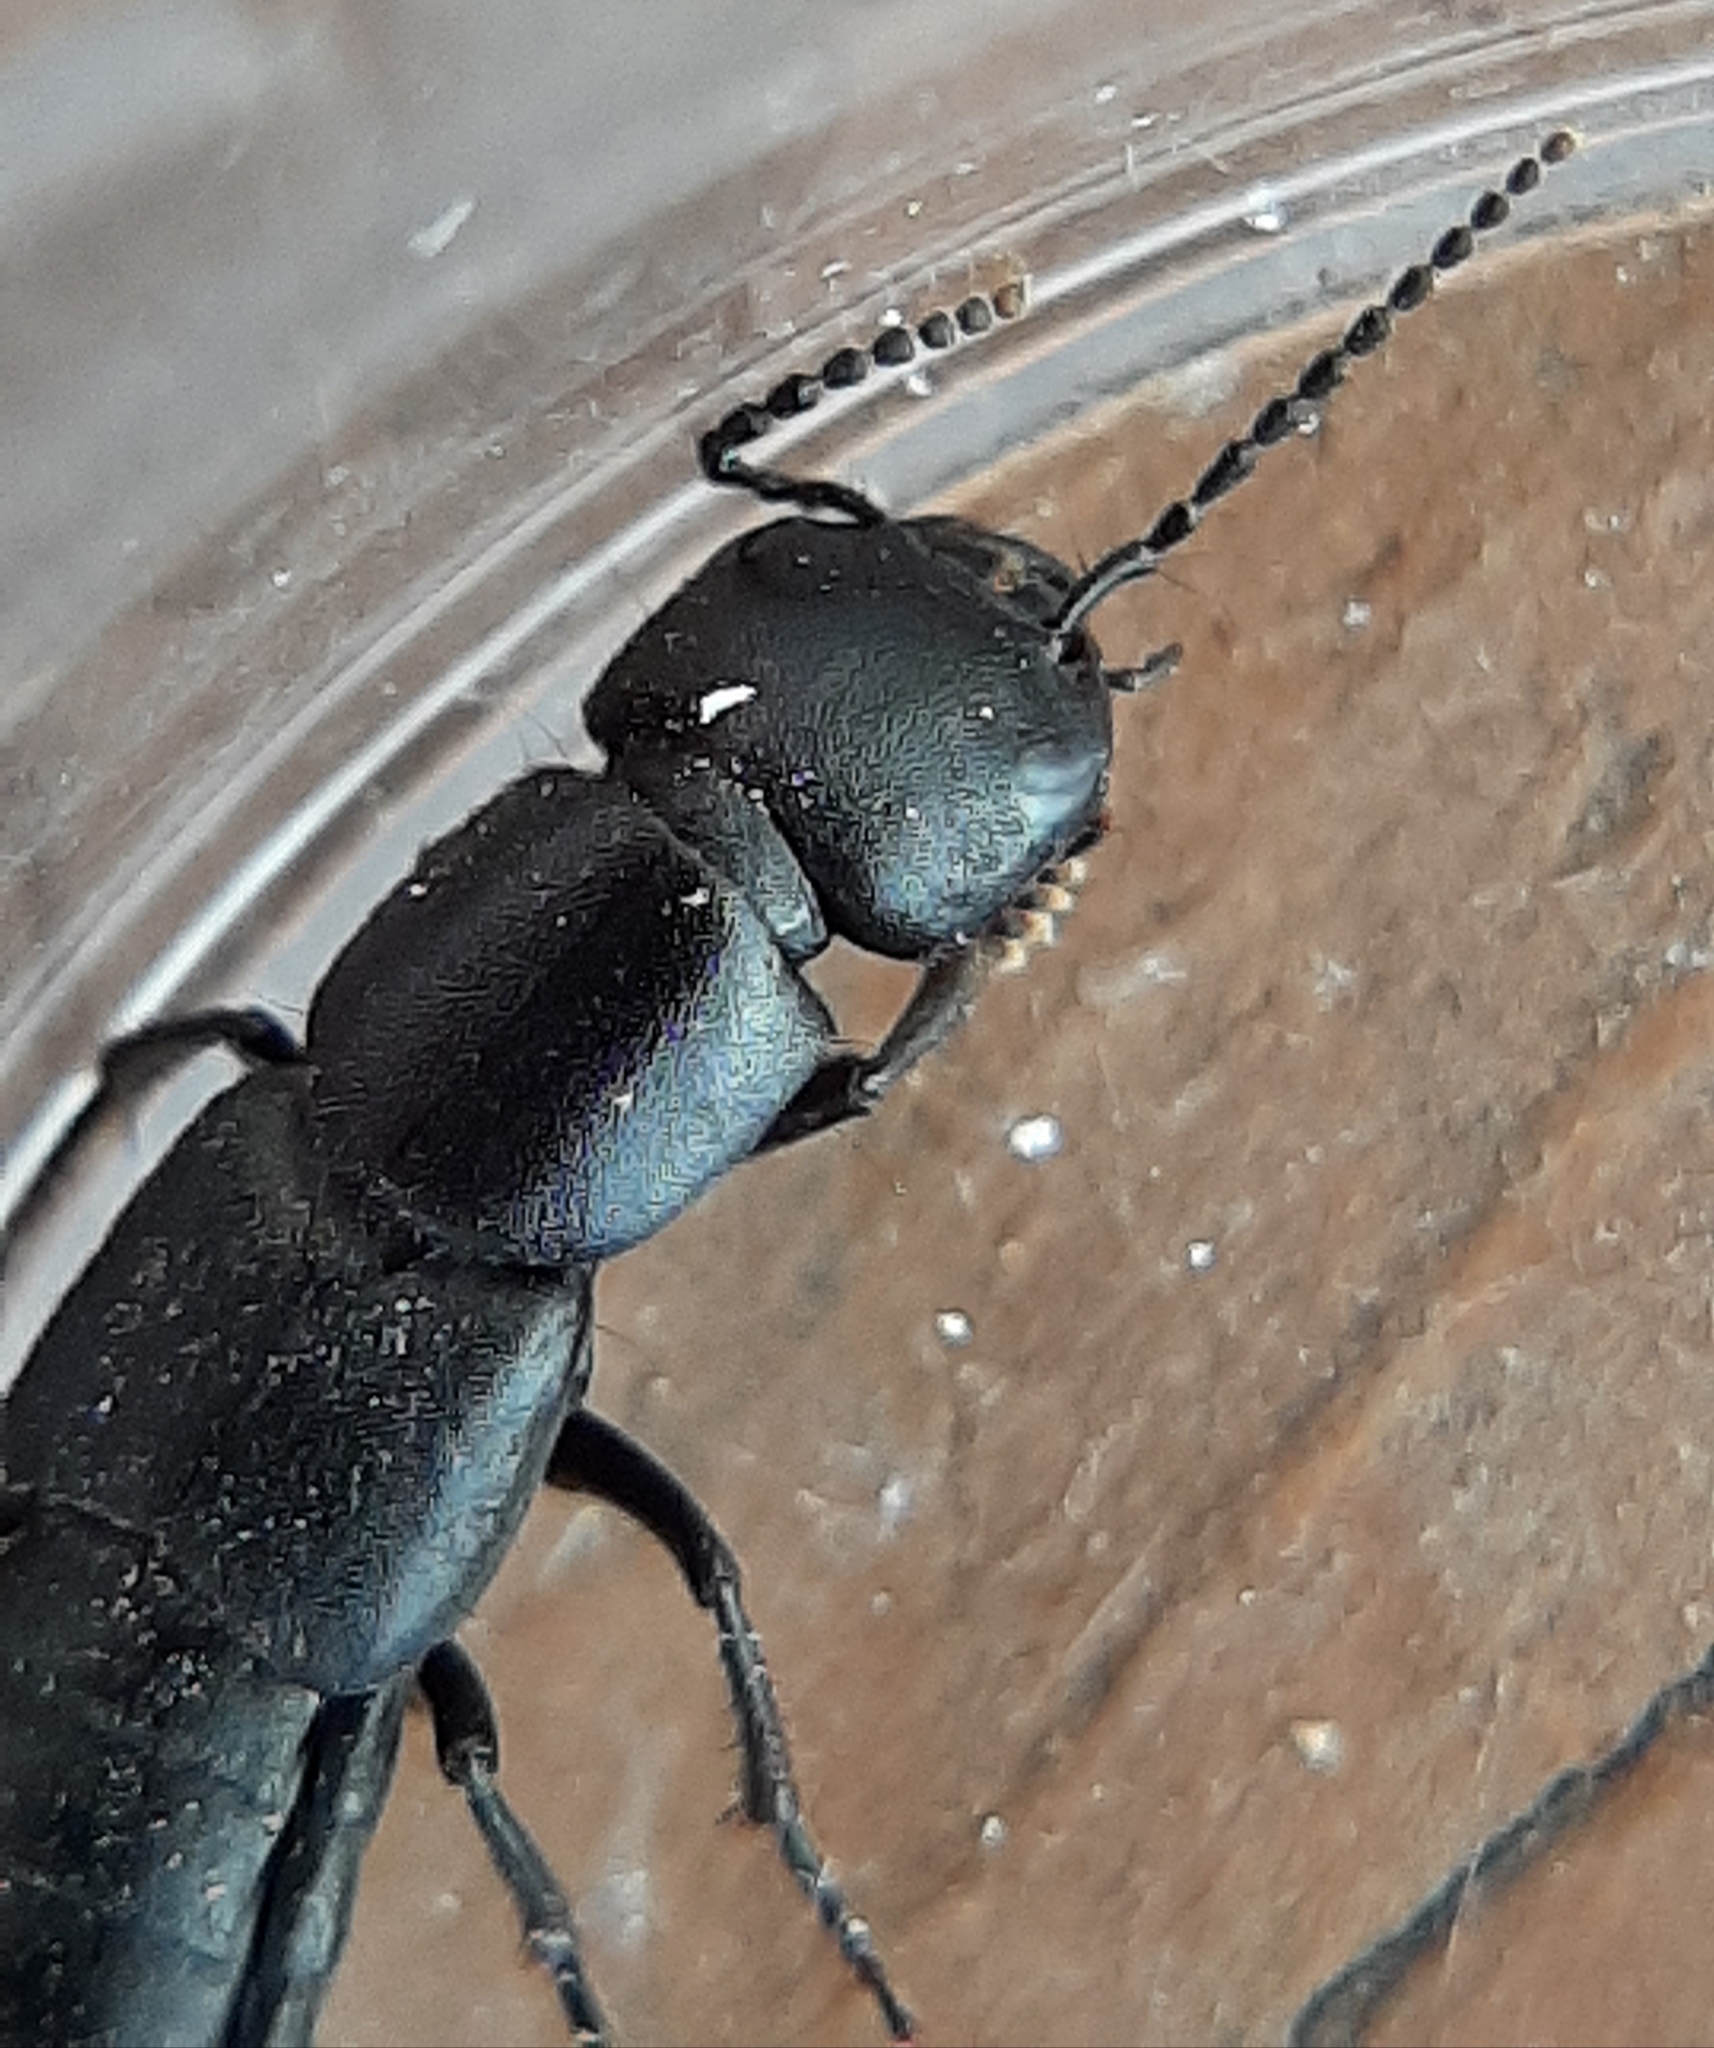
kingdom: Animalia
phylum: Arthropoda
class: Insecta
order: Coleoptera
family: Staphylinidae
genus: Ocypus
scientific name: Ocypus nitens
